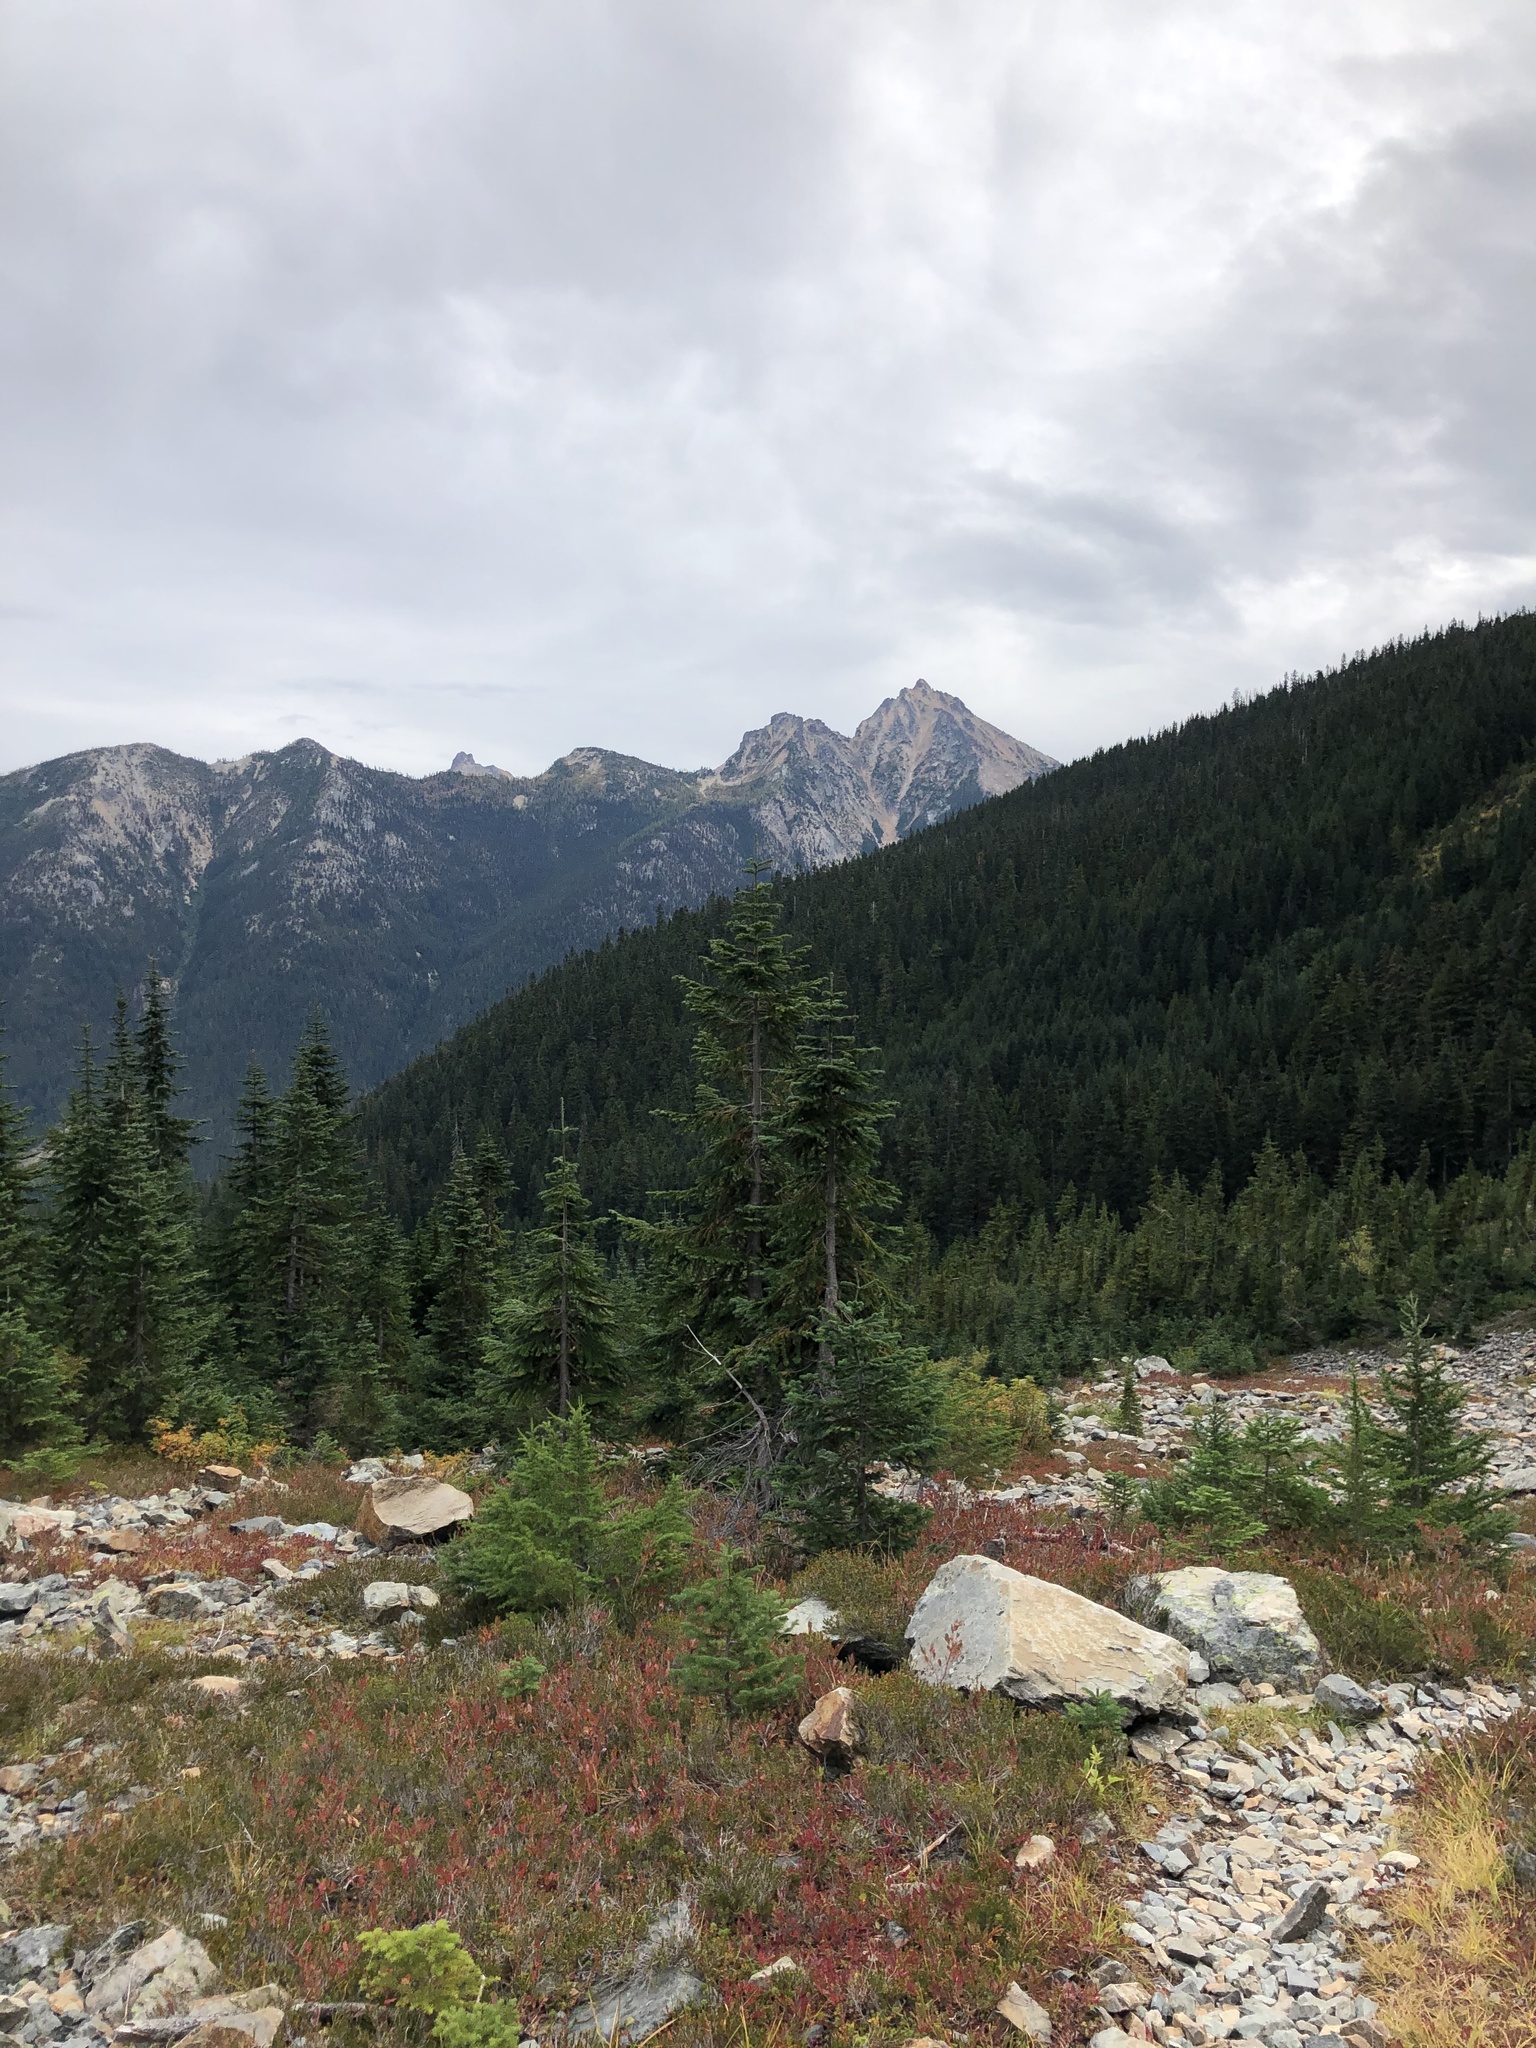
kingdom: Plantae
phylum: Tracheophyta
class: Pinopsida
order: Pinales
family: Pinaceae
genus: Tsuga
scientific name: Tsuga mertensiana
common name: Mountain hemlock
